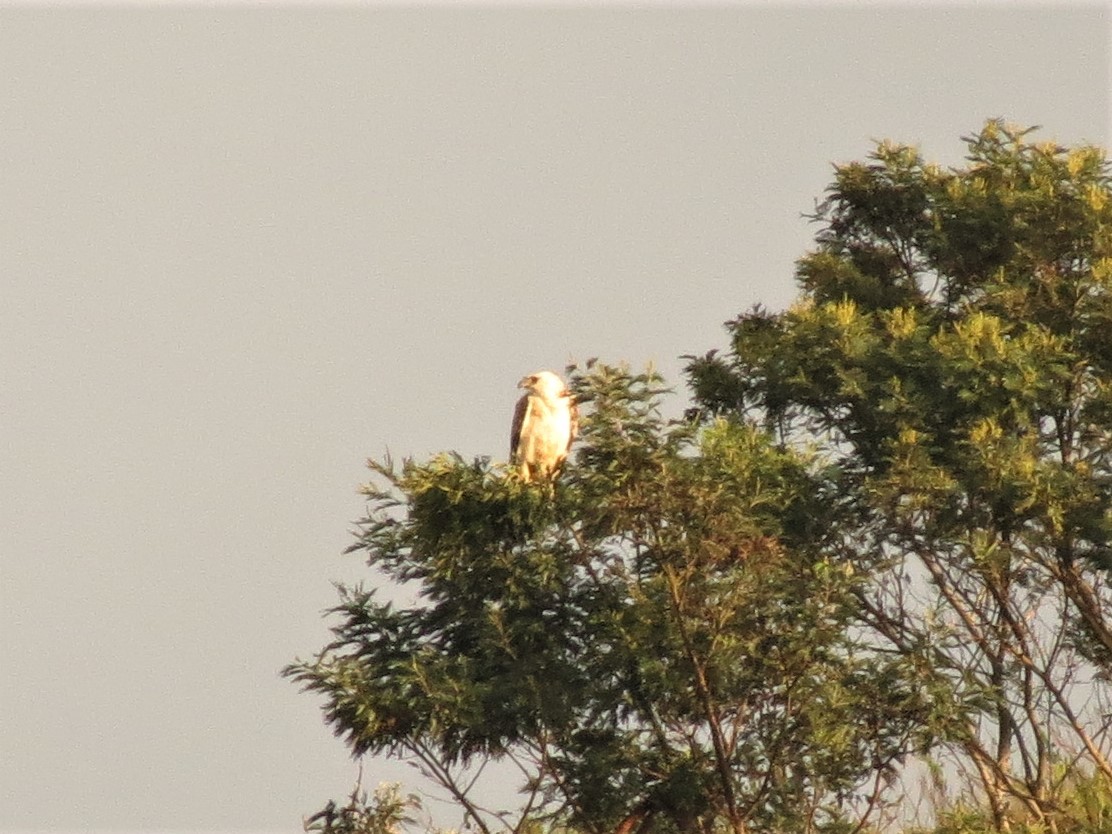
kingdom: Animalia
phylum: Chordata
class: Aves
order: Accipitriformes
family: Accipitridae
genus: Polemaetus
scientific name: Polemaetus bellicosus
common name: Martial eagle
